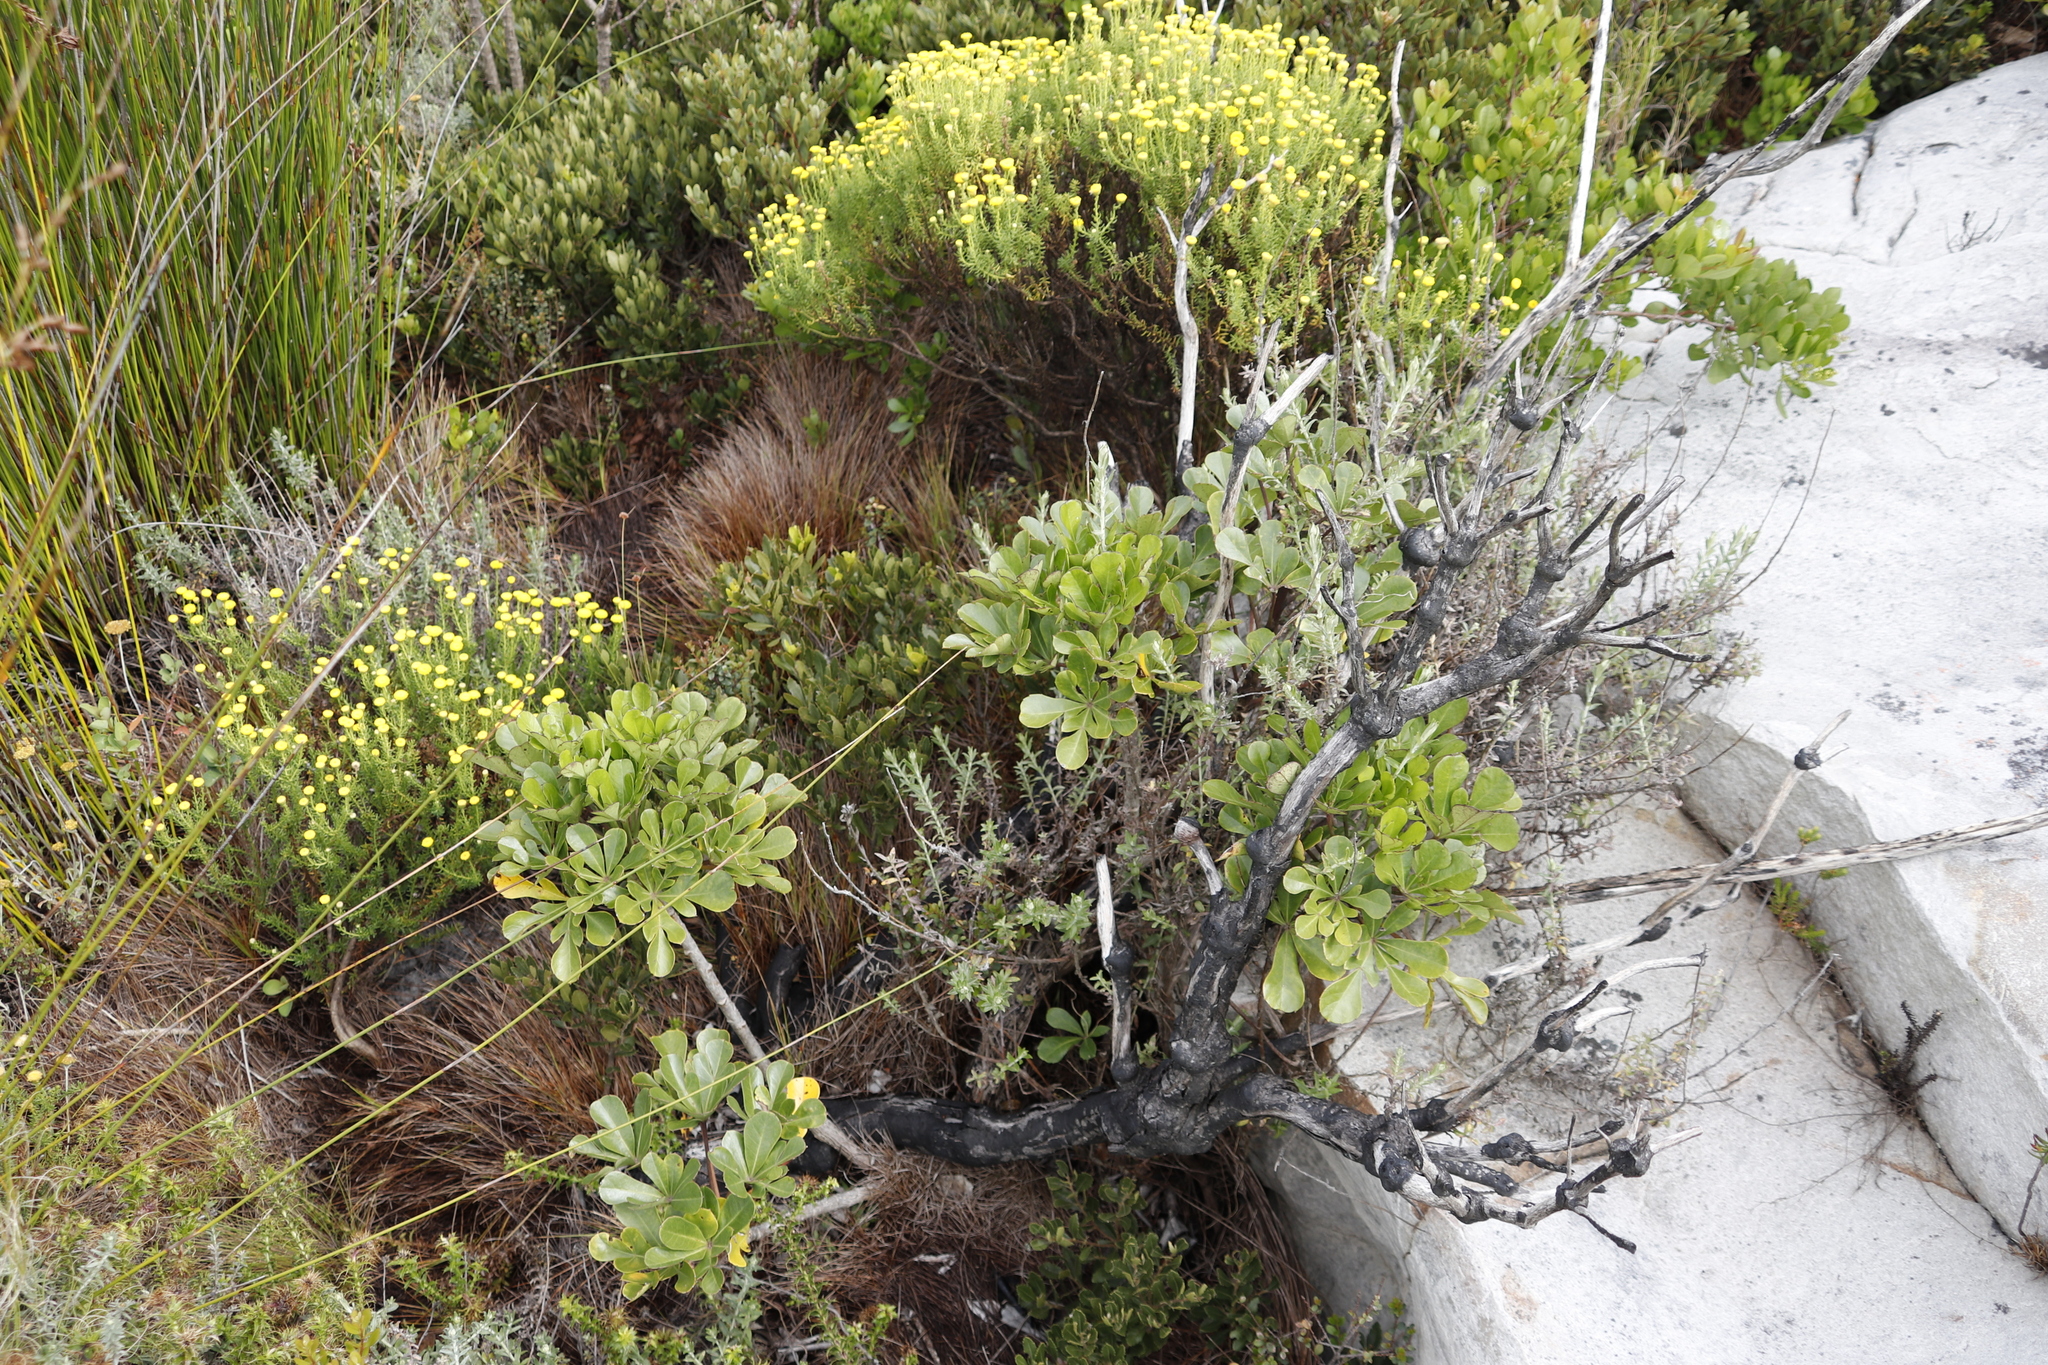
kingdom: Plantae
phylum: Tracheophyta
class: Magnoliopsida
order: Apiales
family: Araliaceae
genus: Cussonia
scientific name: Cussonia thyrsiflora
